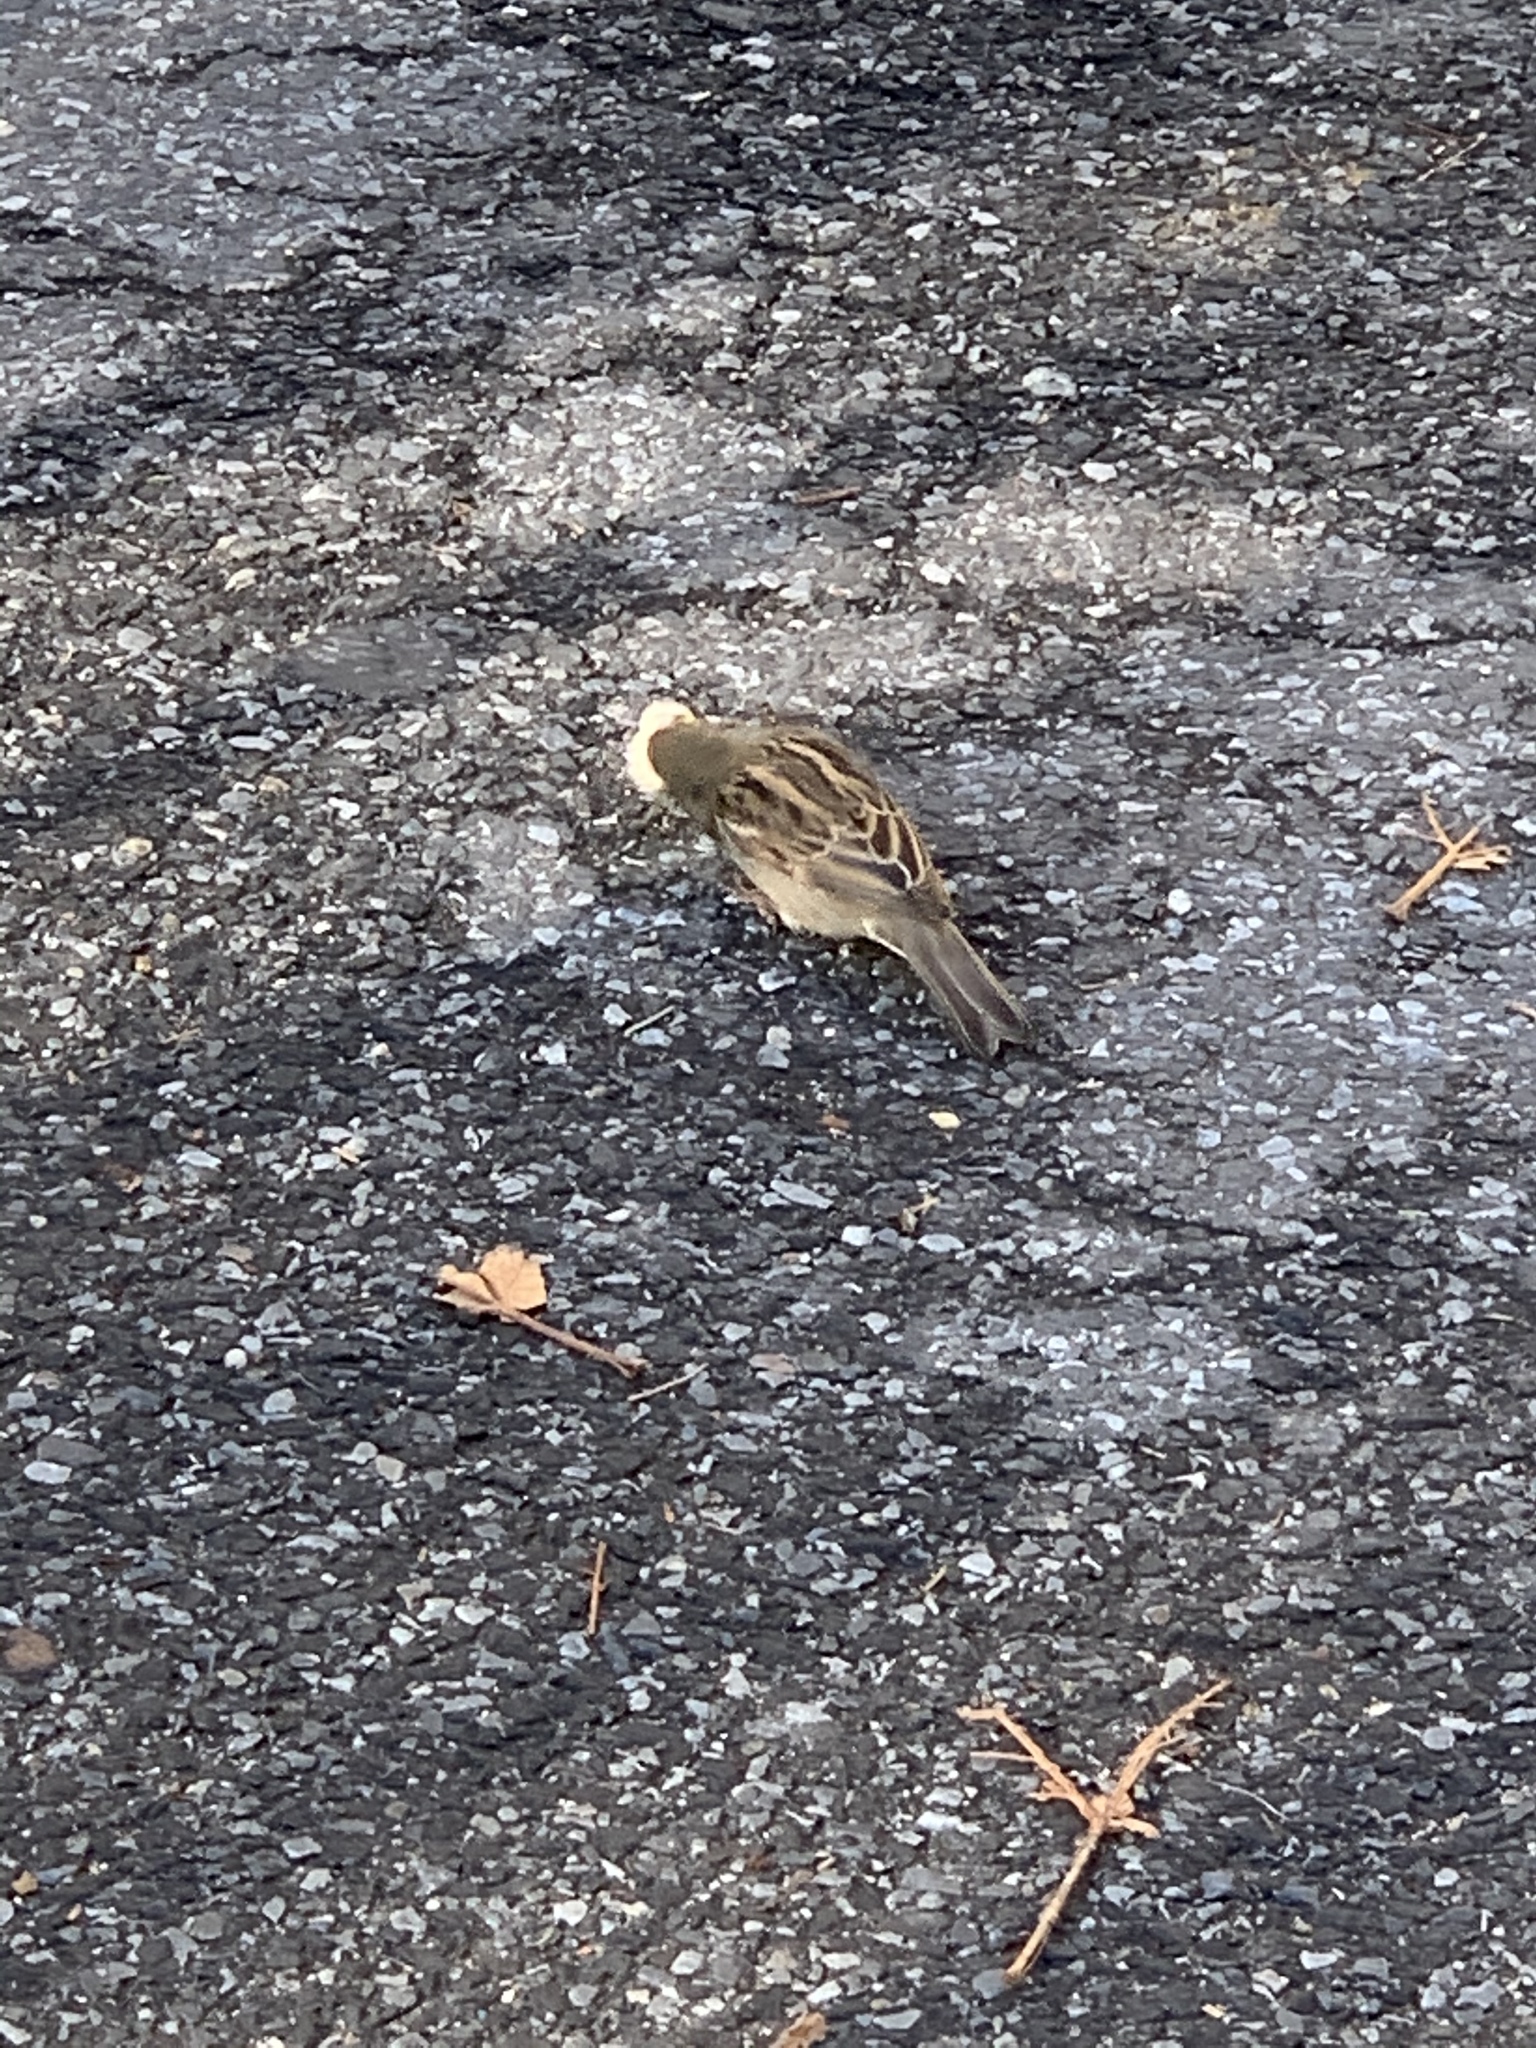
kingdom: Animalia
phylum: Chordata
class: Aves
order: Passeriformes
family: Passeridae
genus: Passer
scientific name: Passer domesticus
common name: House sparrow
